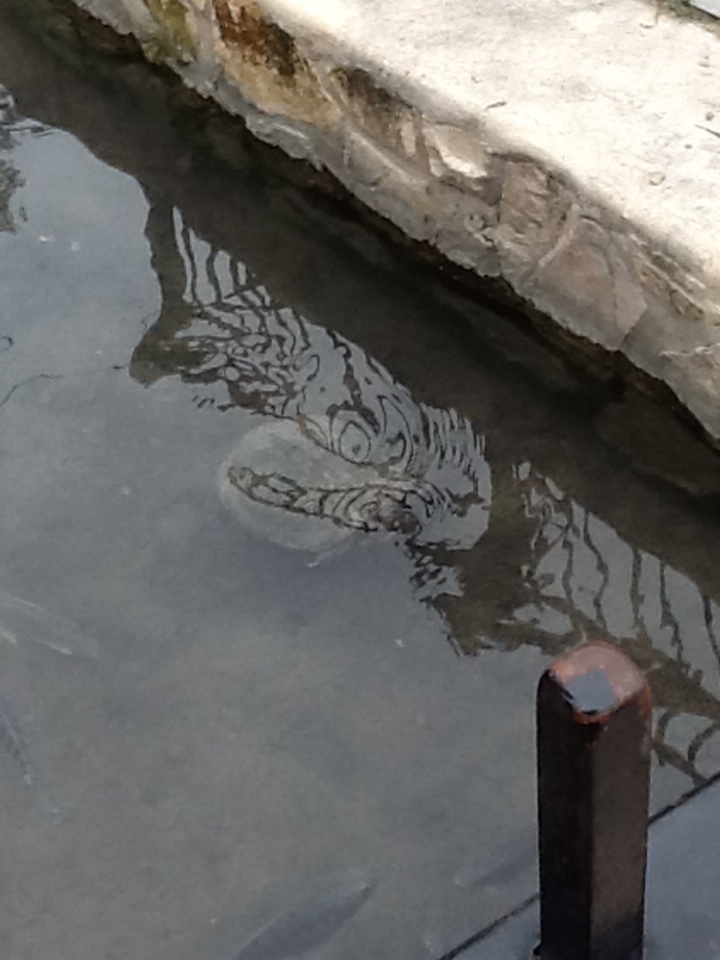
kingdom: Animalia
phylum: Chordata
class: Testudines
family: Emydidae
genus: Trachemys
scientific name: Trachemys scripta
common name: Slider
